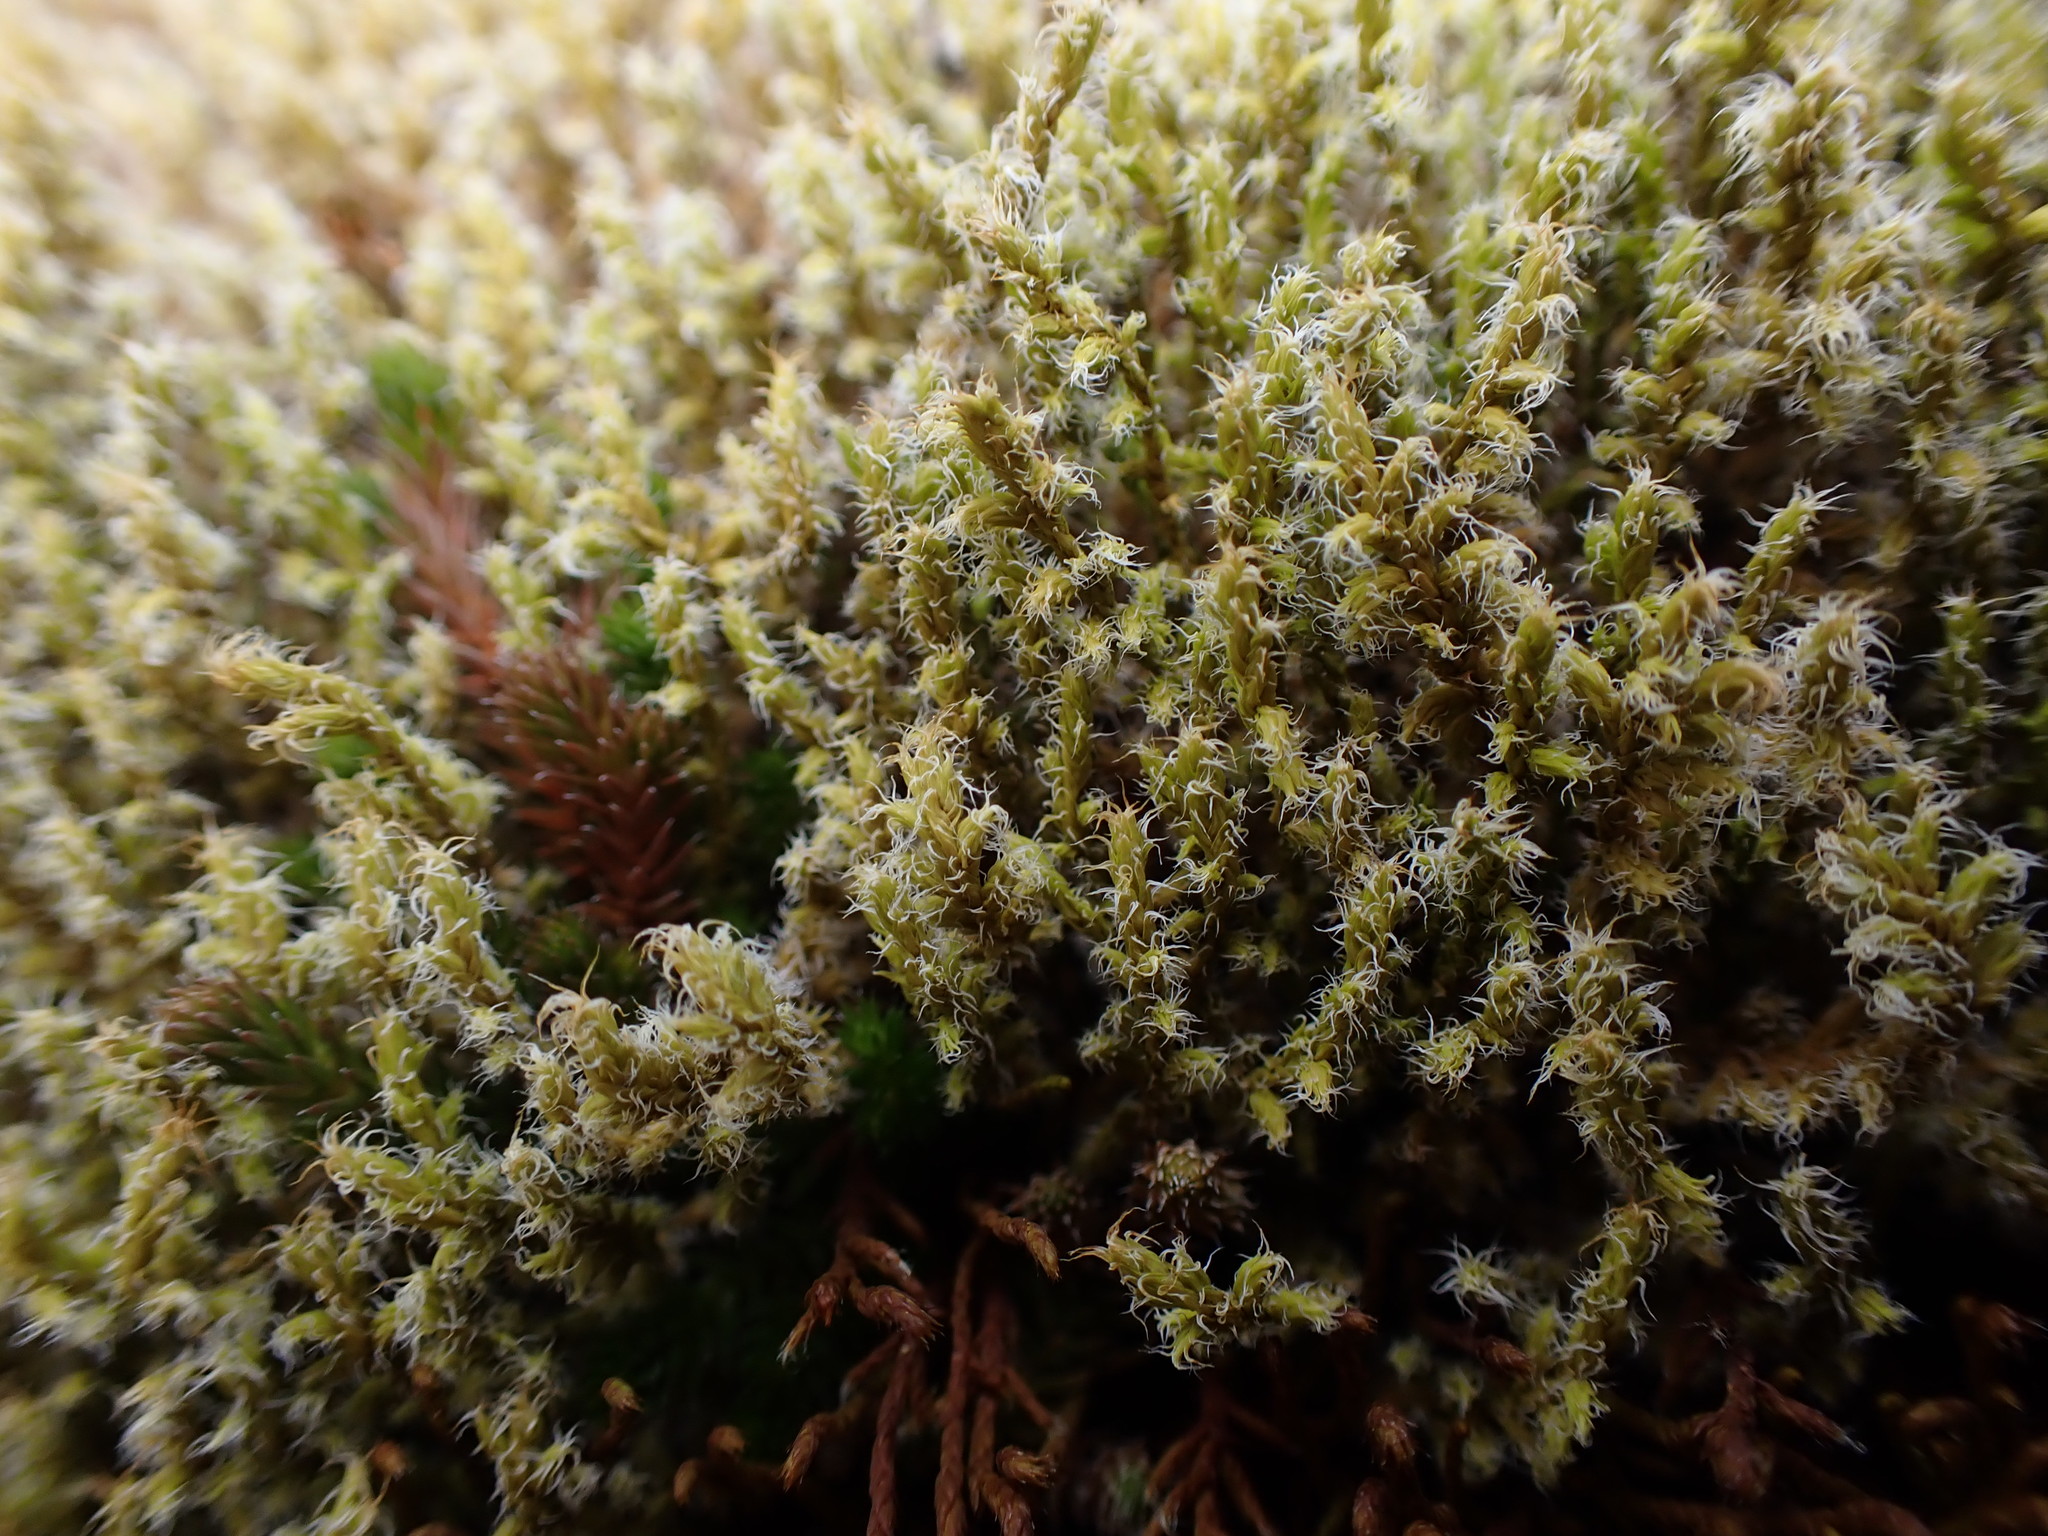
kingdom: Plantae
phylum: Bryophyta
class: Bryopsida
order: Grimmiales
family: Grimmiaceae
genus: Niphotrichum
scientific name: Niphotrichum elongatum
